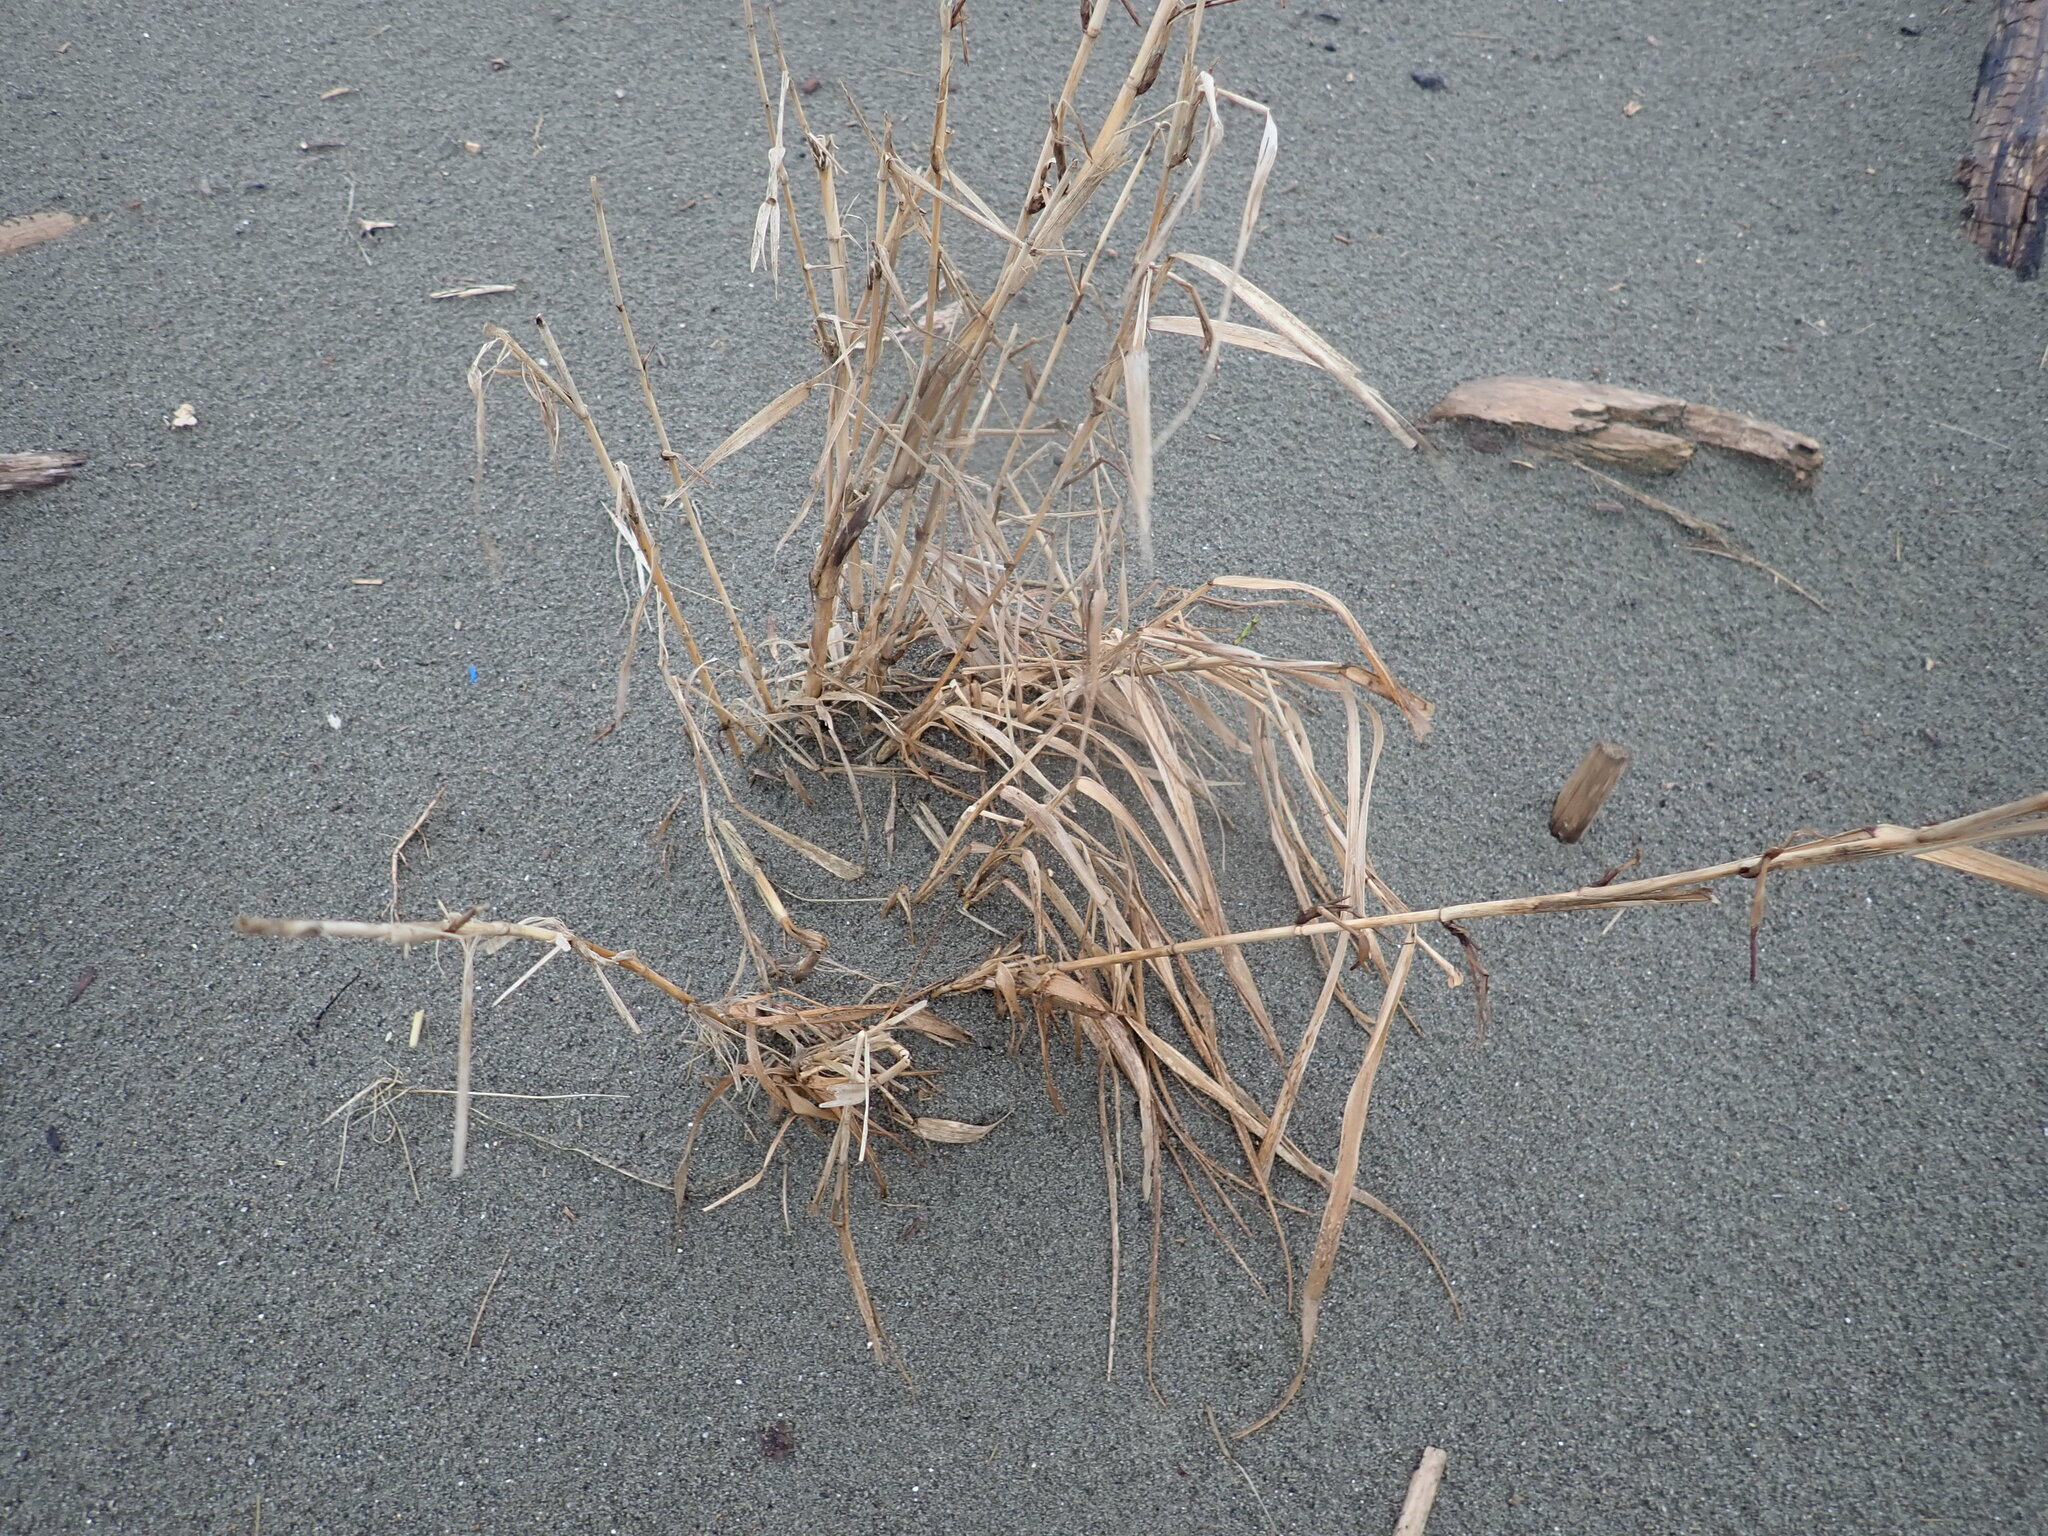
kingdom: Plantae
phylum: Tracheophyta
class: Liliopsida
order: Poales
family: Poaceae
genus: Phragmites
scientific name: Phragmites karka
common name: Tropical reed
